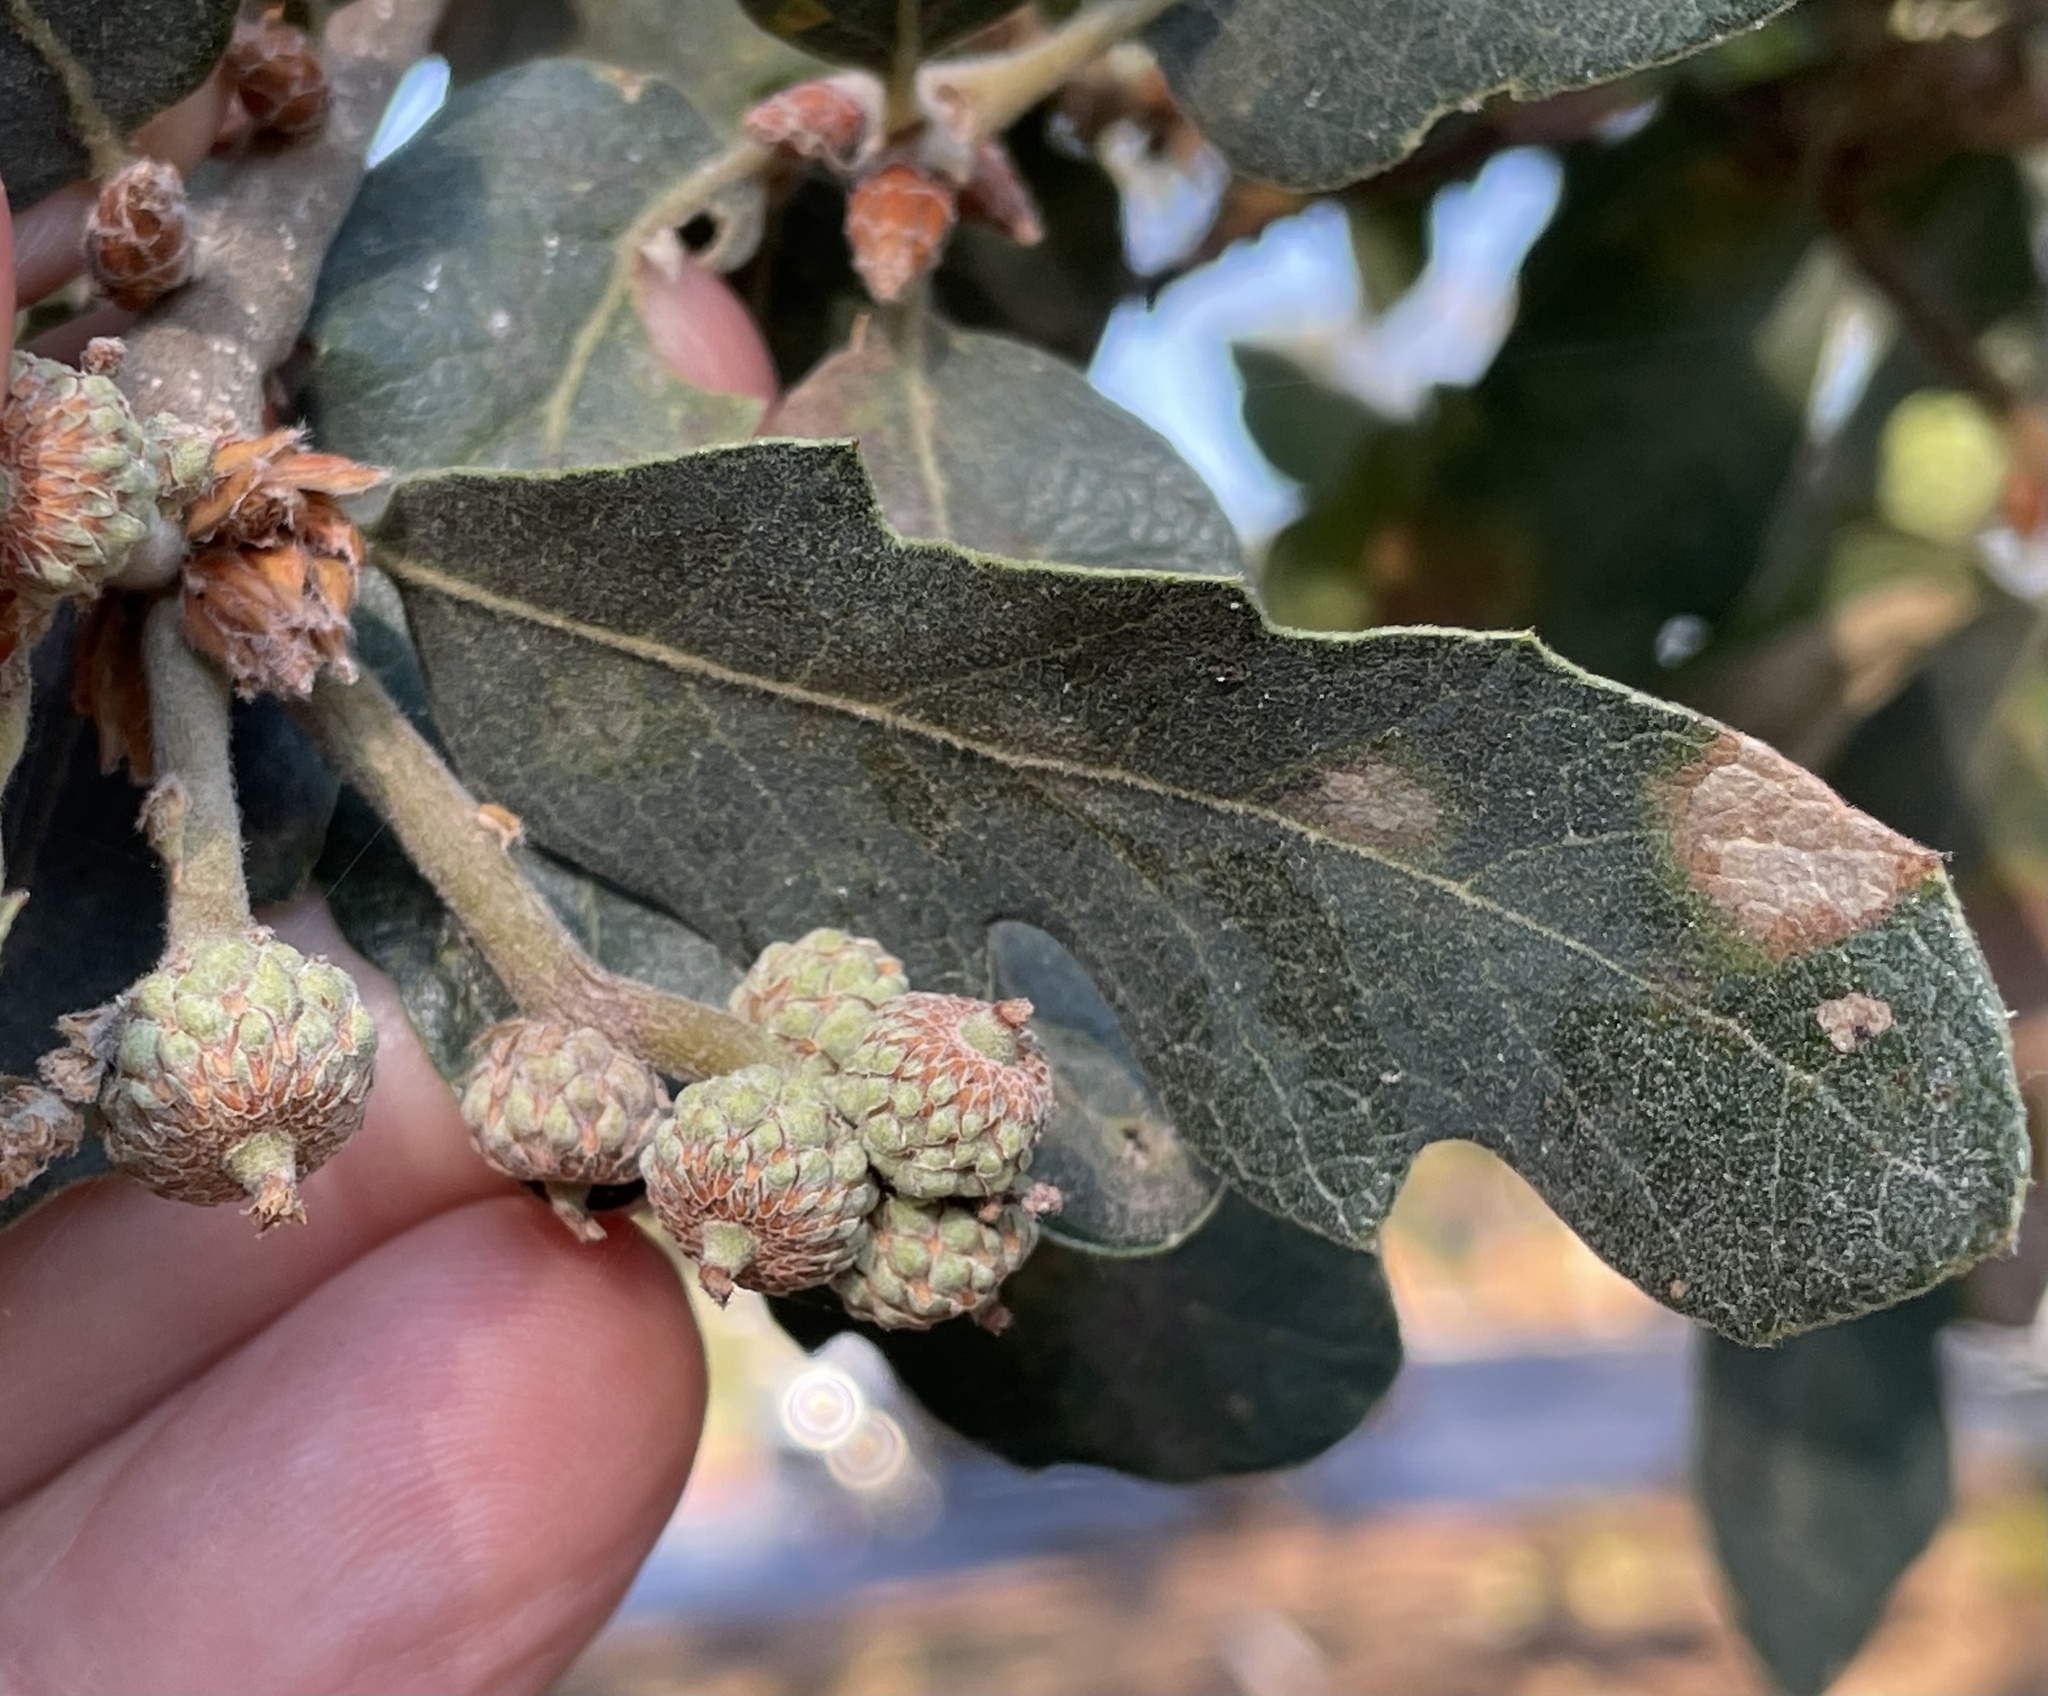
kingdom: Plantae
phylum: Tracheophyta
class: Magnoliopsida
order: Fagales
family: Fagaceae
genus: Quercus
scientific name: Quercus douglasii
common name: Blue oak
